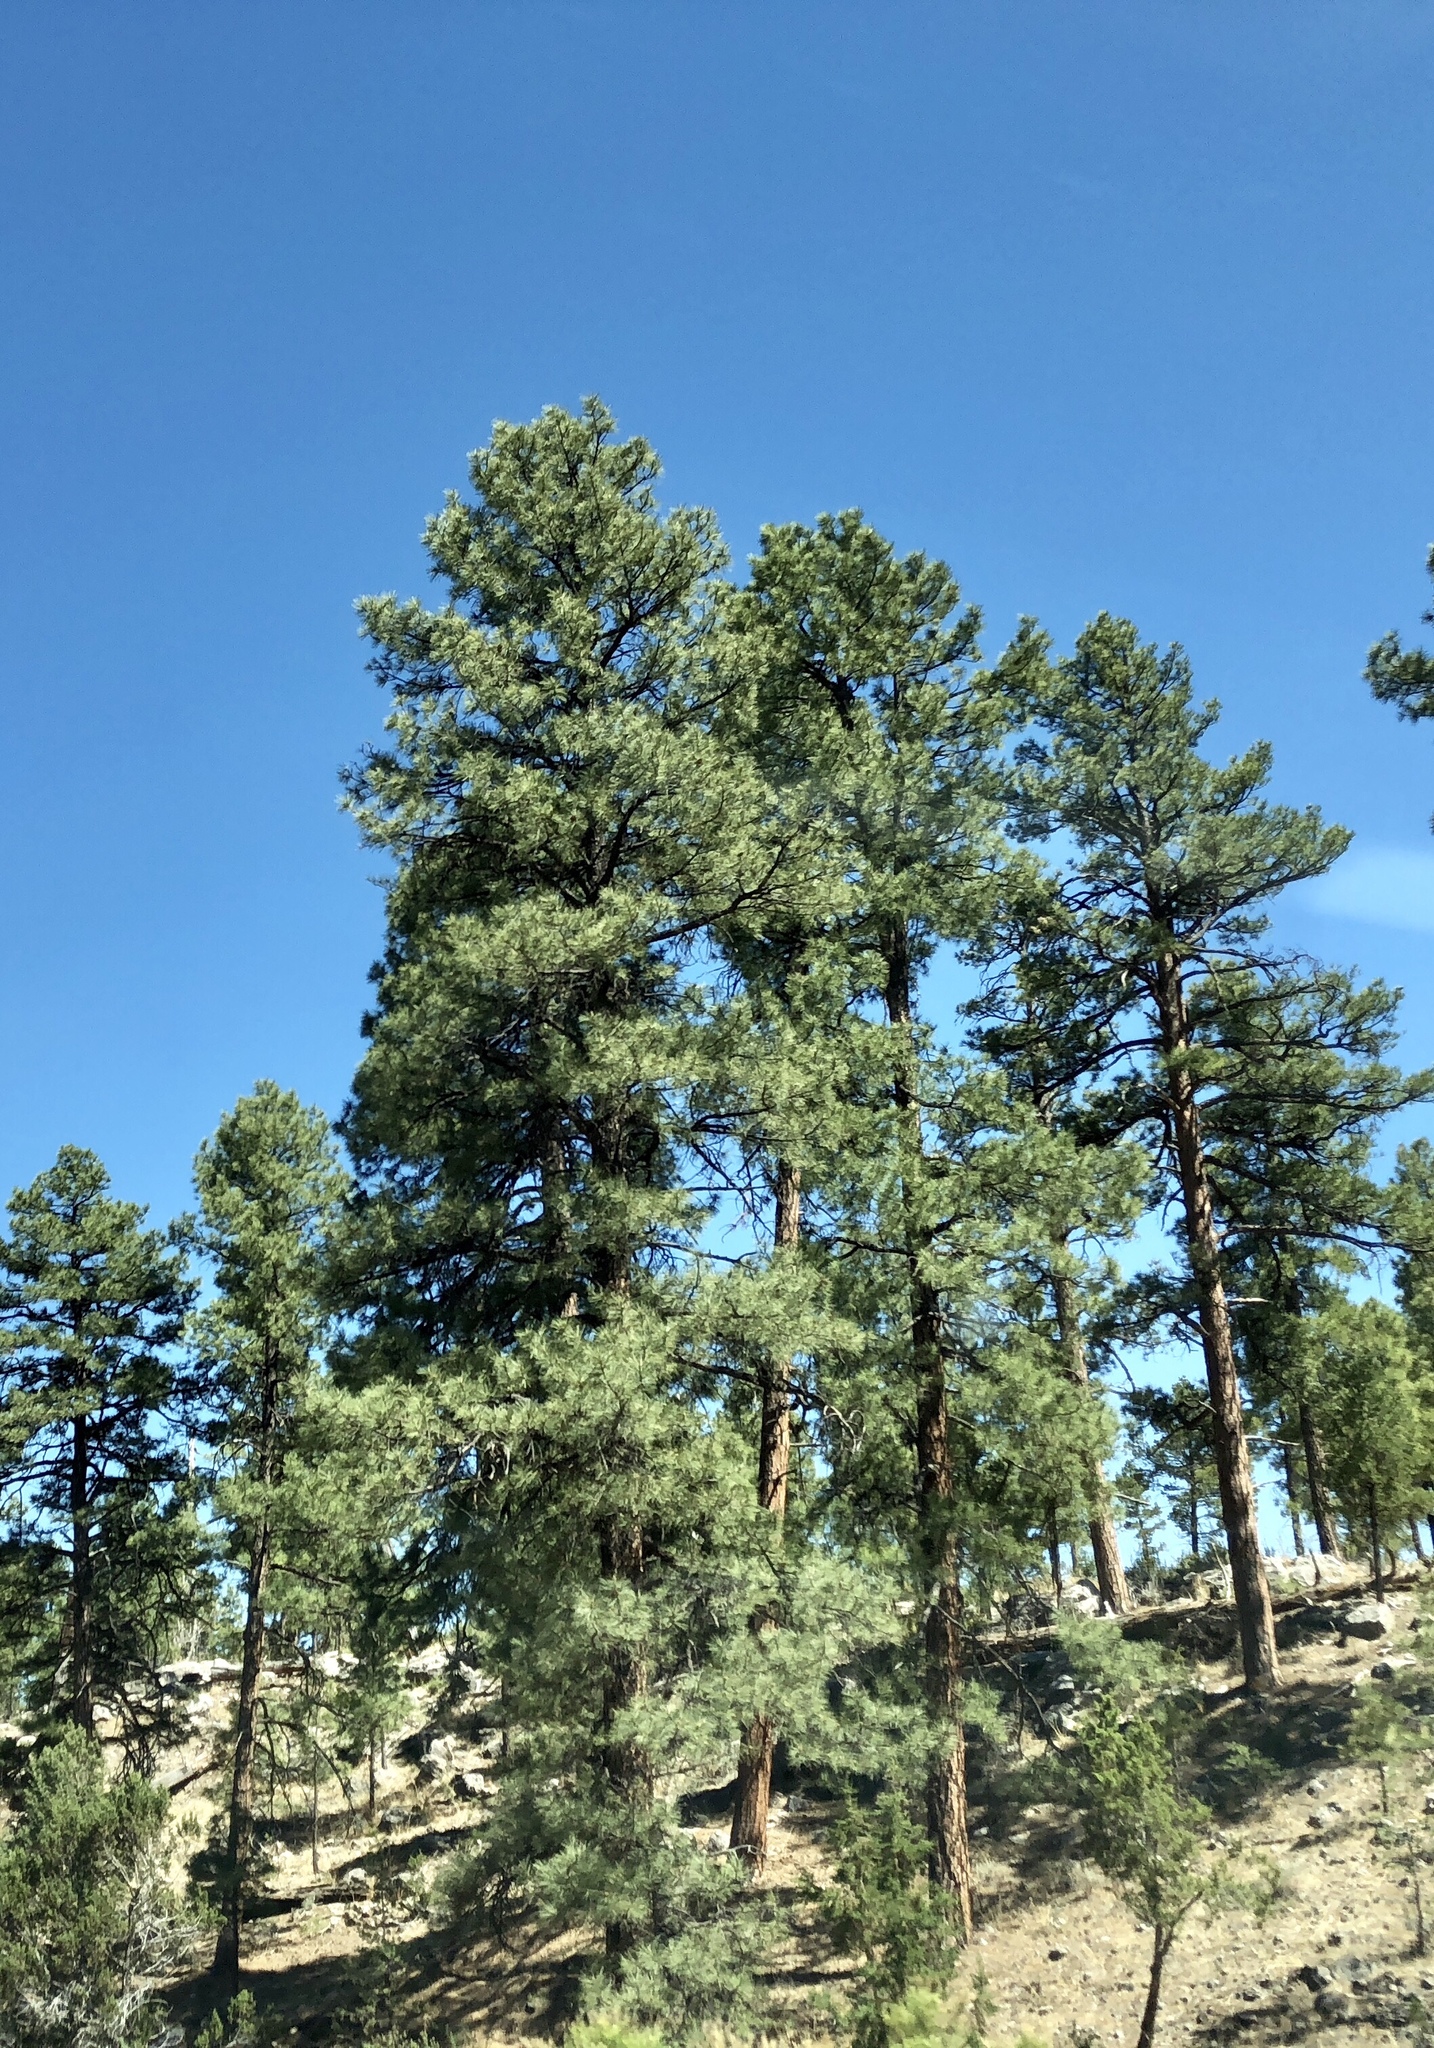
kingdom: Plantae
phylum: Tracheophyta
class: Pinopsida
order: Pinales
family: Pinaceae
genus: Pinus
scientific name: Pinus ponderosa
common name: Western yellow-pine
